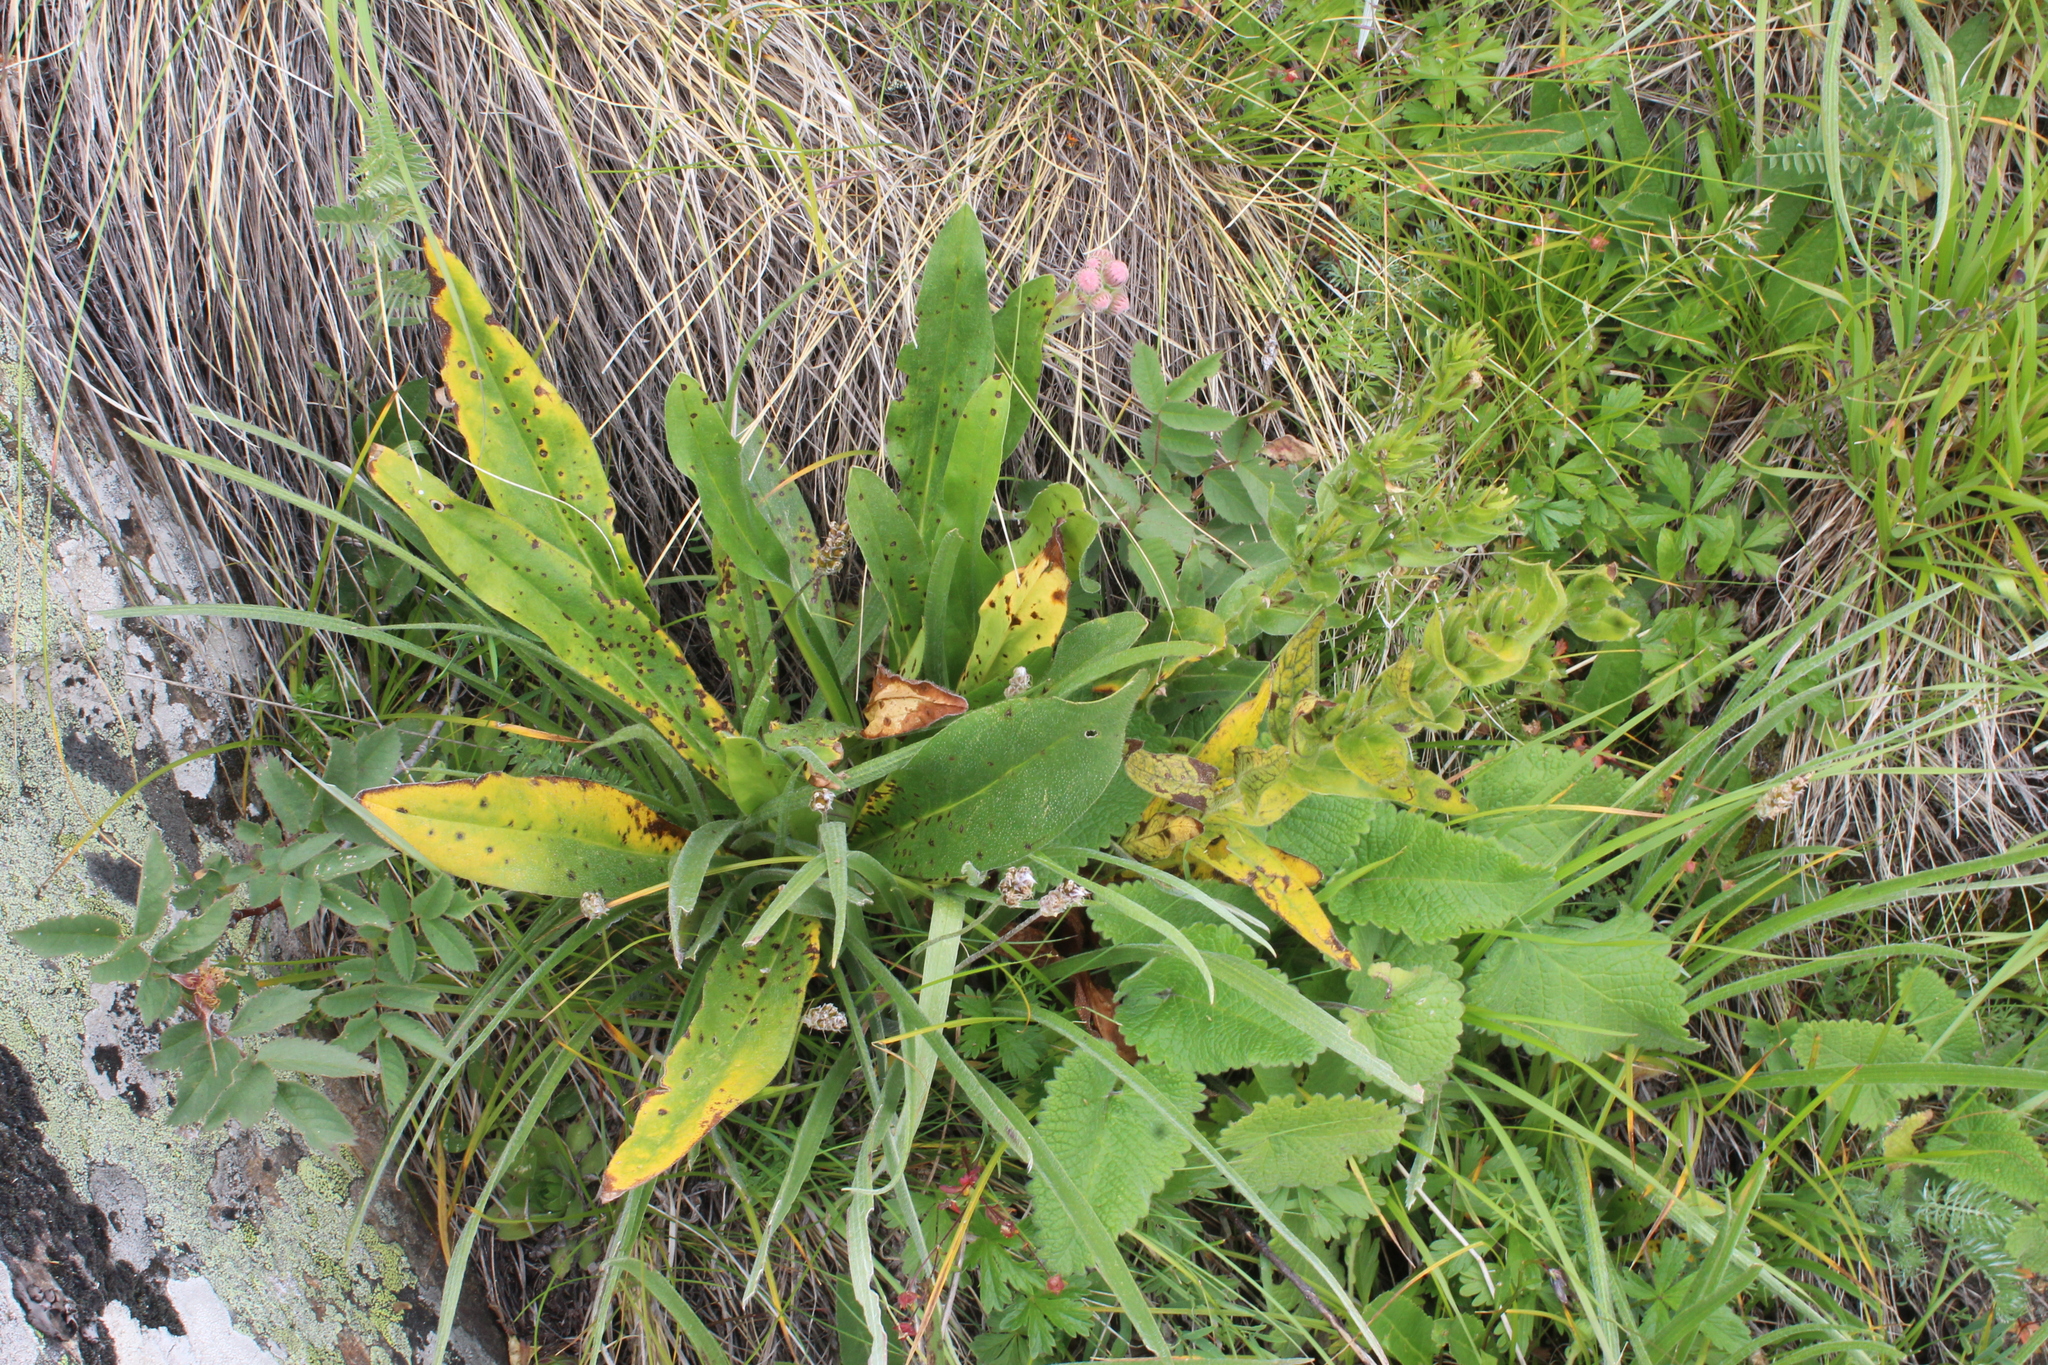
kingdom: Plantae
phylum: Tracheophyta
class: Magnoliopsida
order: Boraginales
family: Boraginaceae
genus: Huynhia
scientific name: Huynhia pulchra
